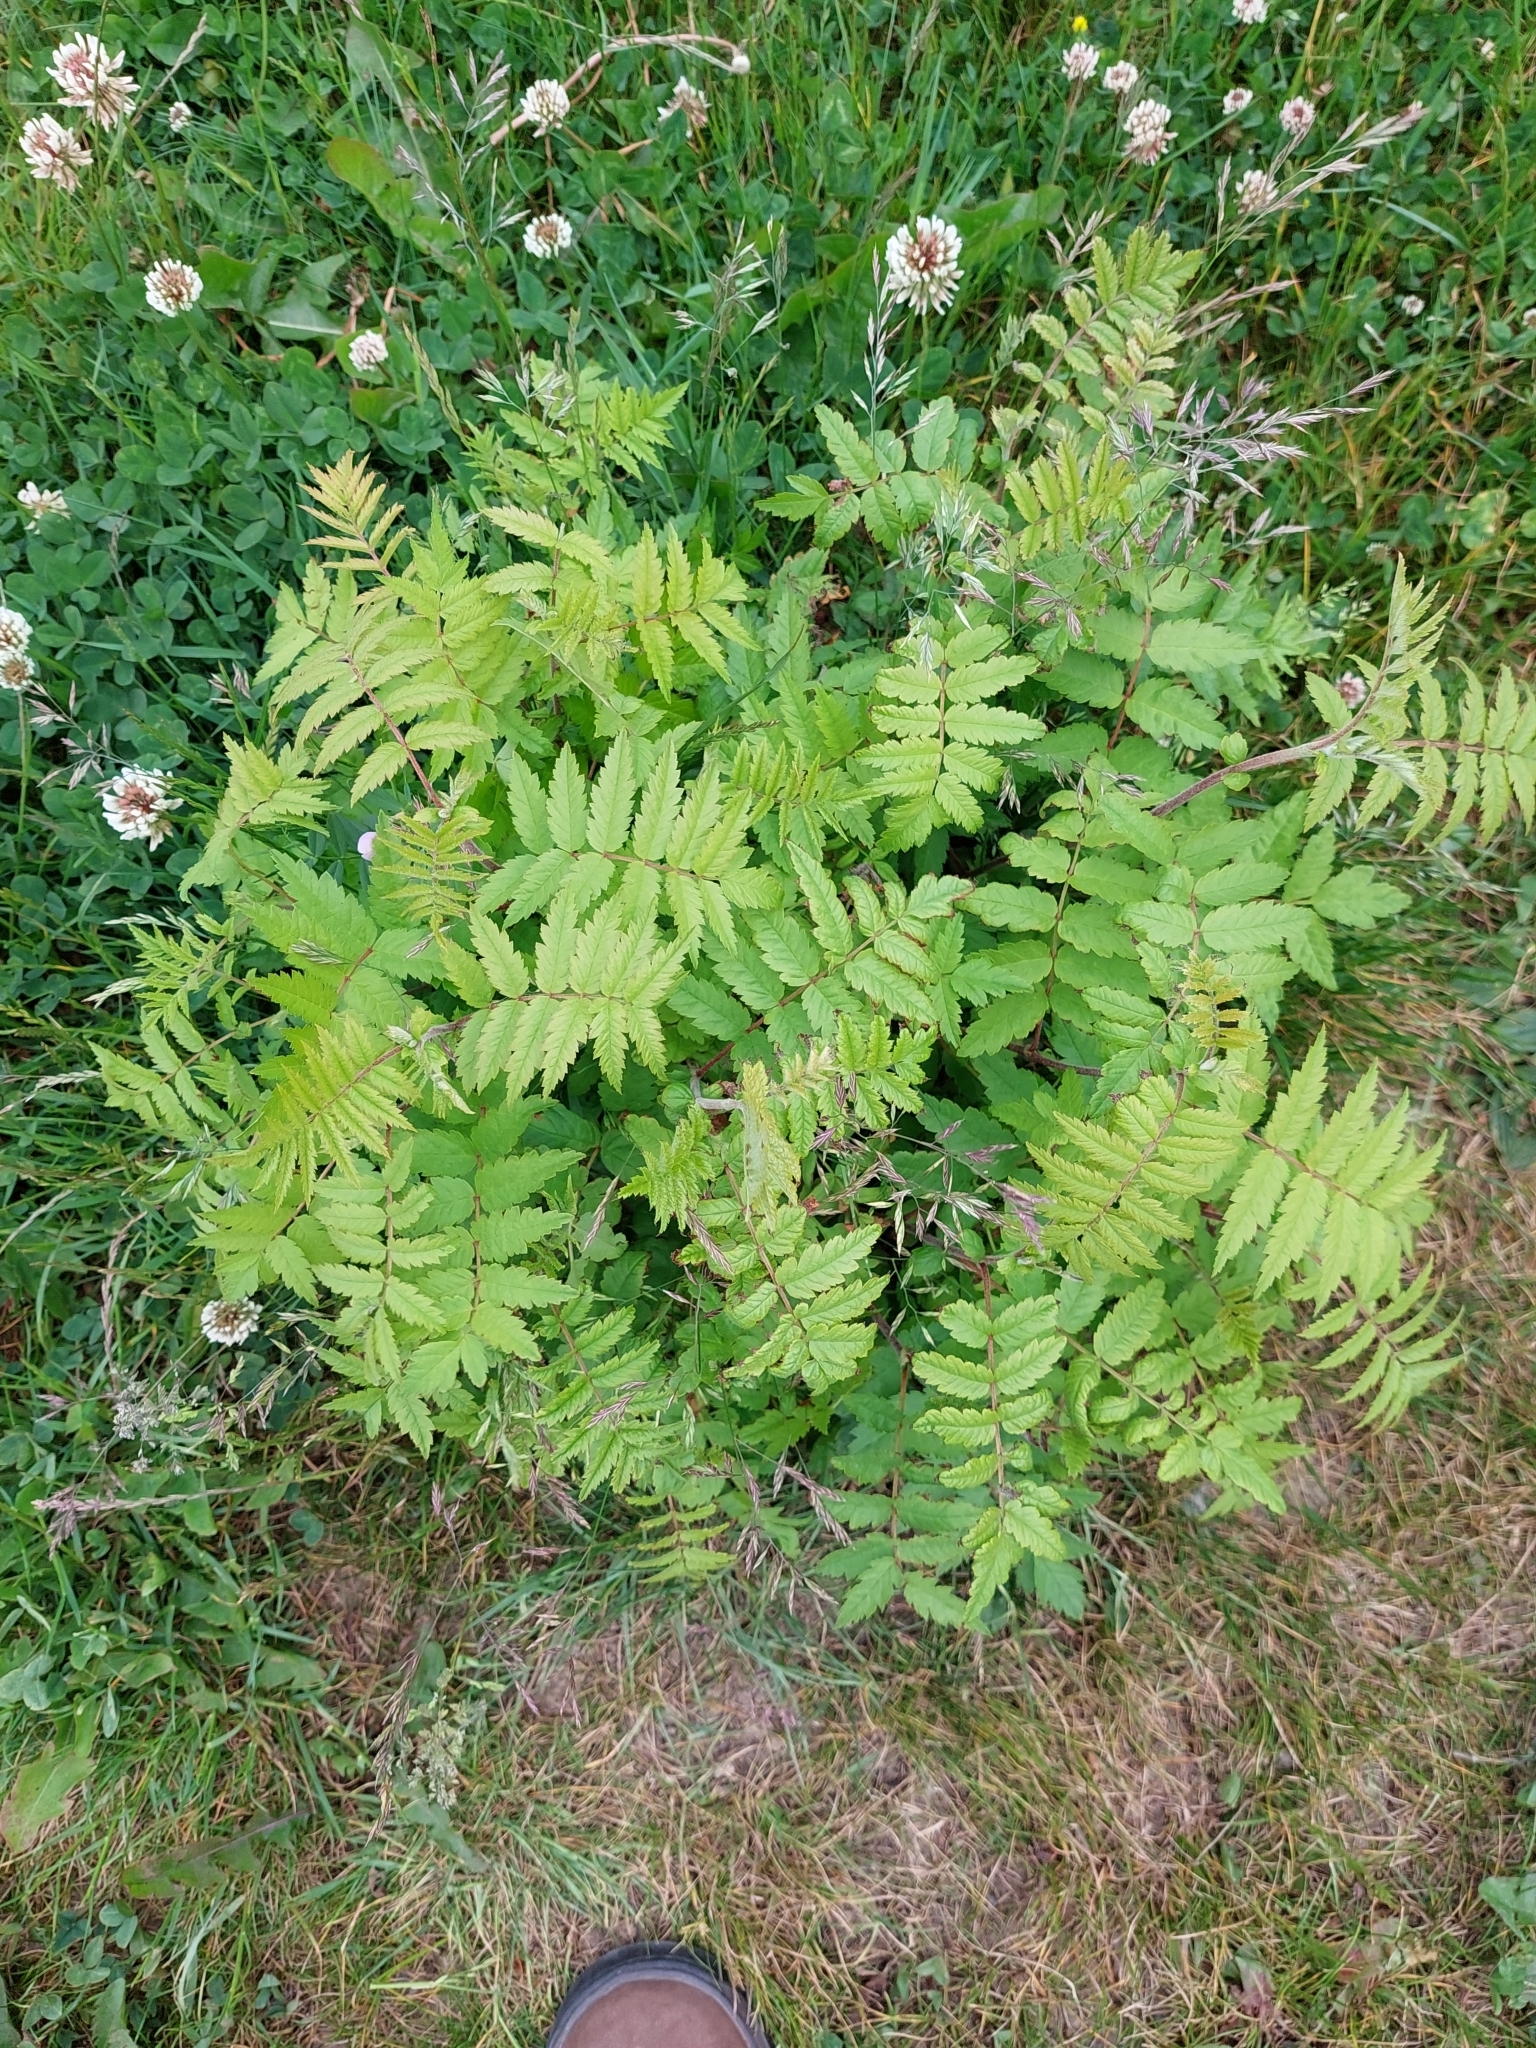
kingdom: Plantae
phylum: Tracheophyta
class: Magnoliopsida
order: Rosales
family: Rosaceae
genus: Sorbaria
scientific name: Sorbaria sorbifolia
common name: False spiraea
